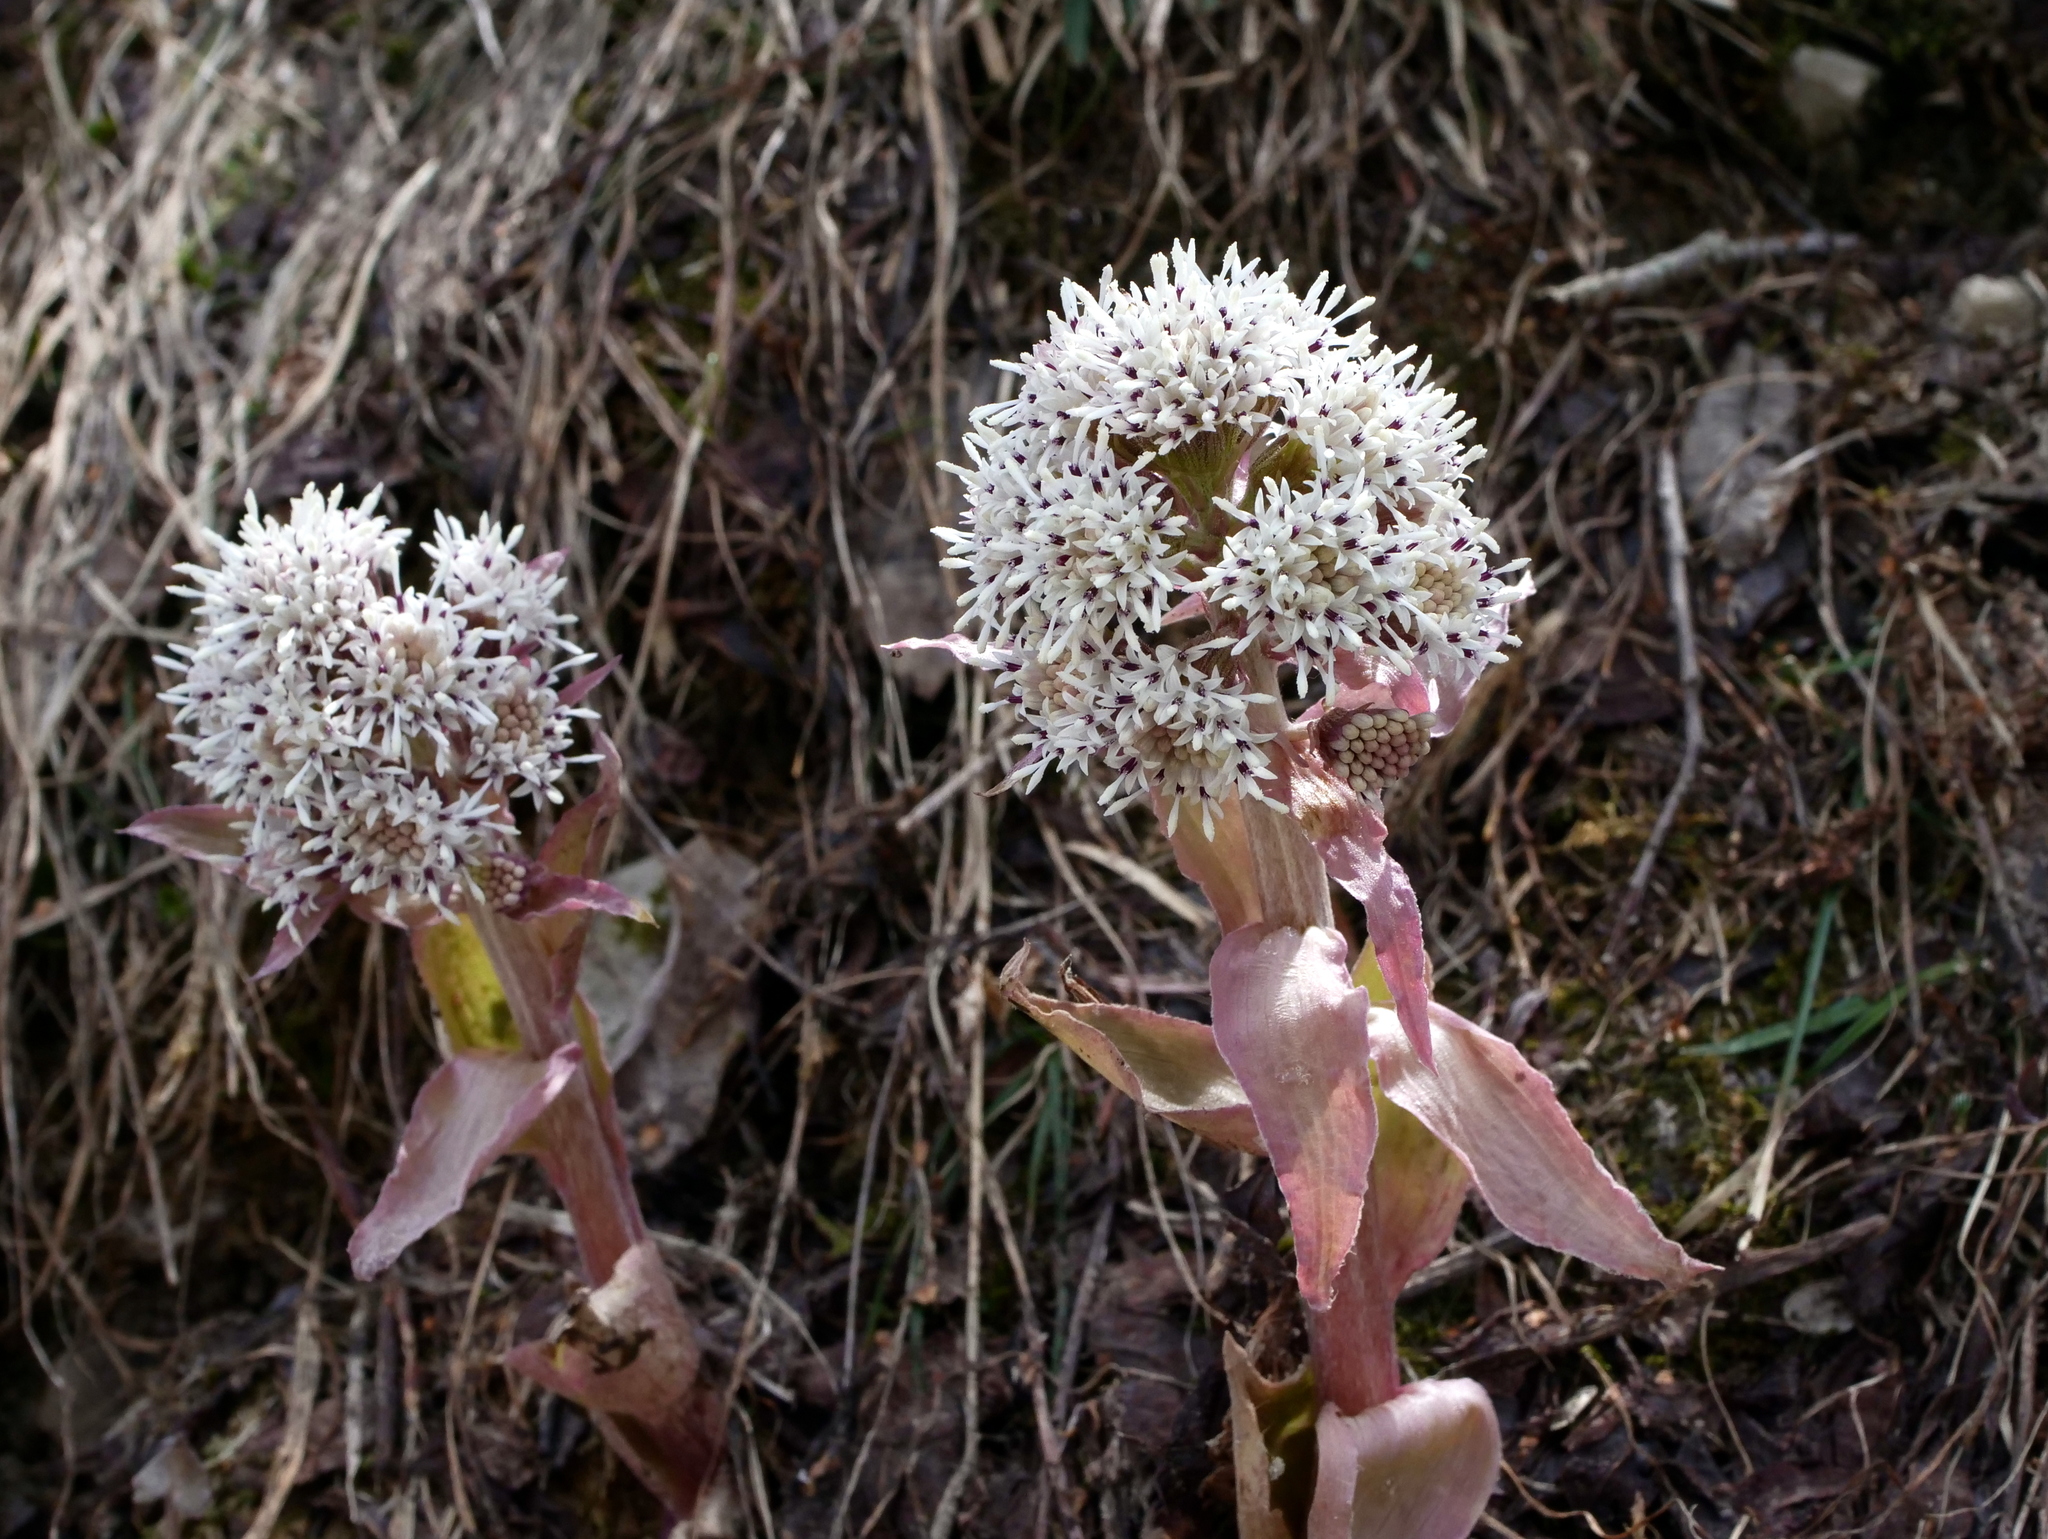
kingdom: Plantae
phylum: Tracheophyta
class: Magnoliopsida
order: Asterales
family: Asteraceae
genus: Petasites
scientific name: Petasites paradoxus
